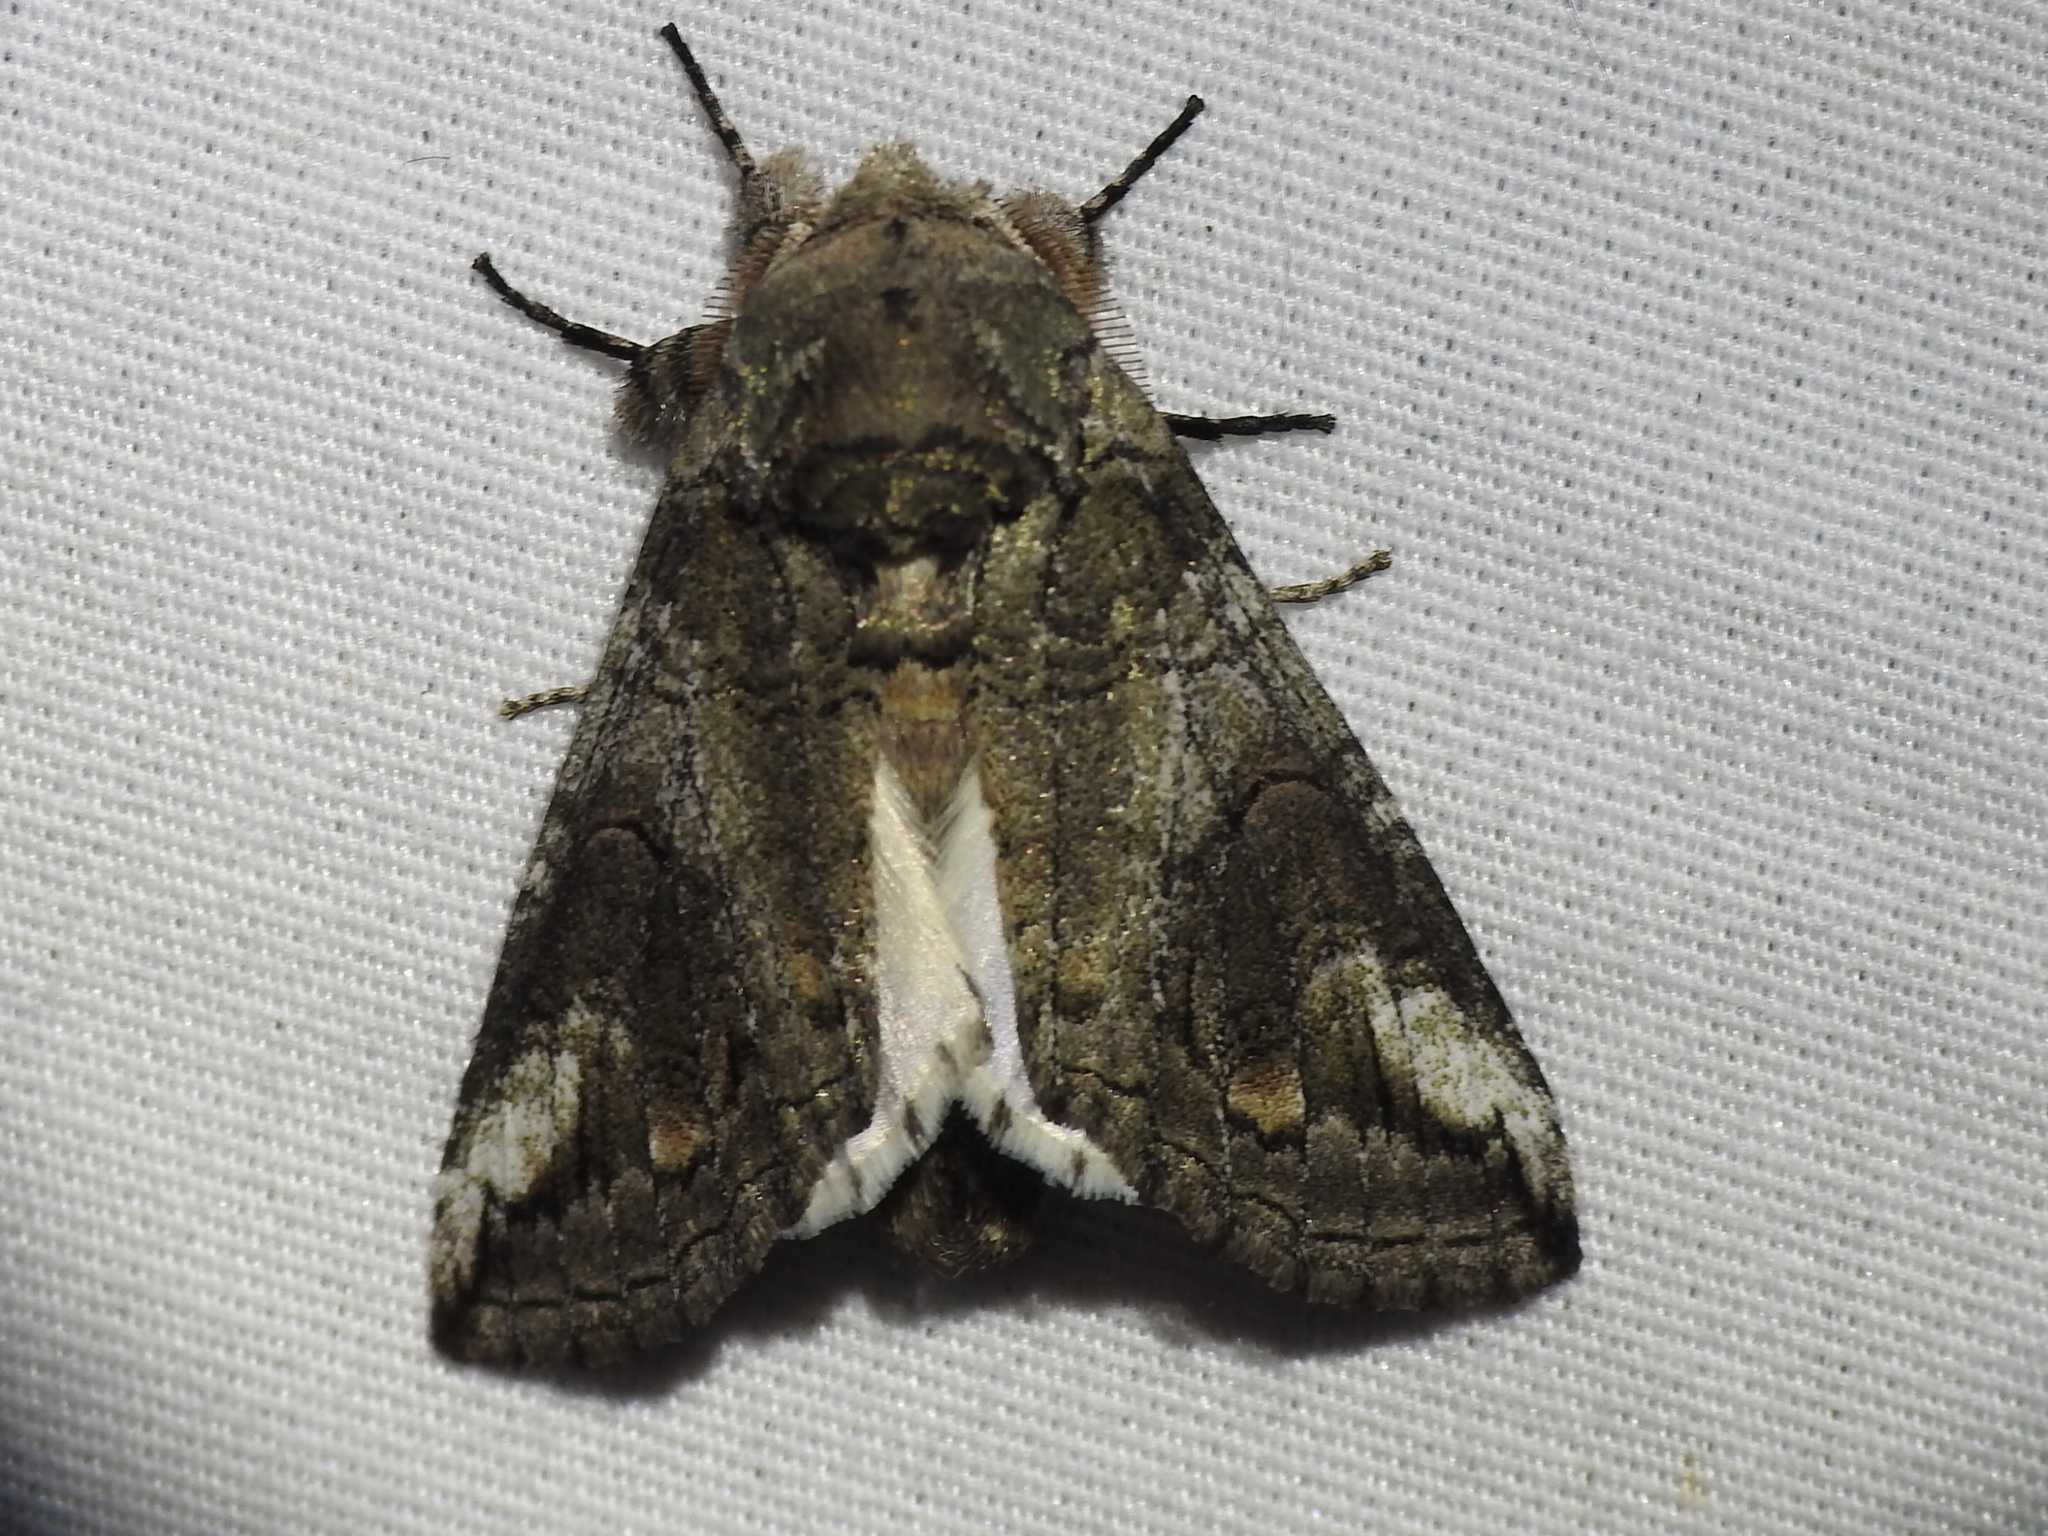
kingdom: Animalia
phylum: Arthropoda
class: Insecta
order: Lepidoptera
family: Notodontidae
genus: Heterocampa
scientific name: Heterocampa obliqua
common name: Oblique heterocampa
